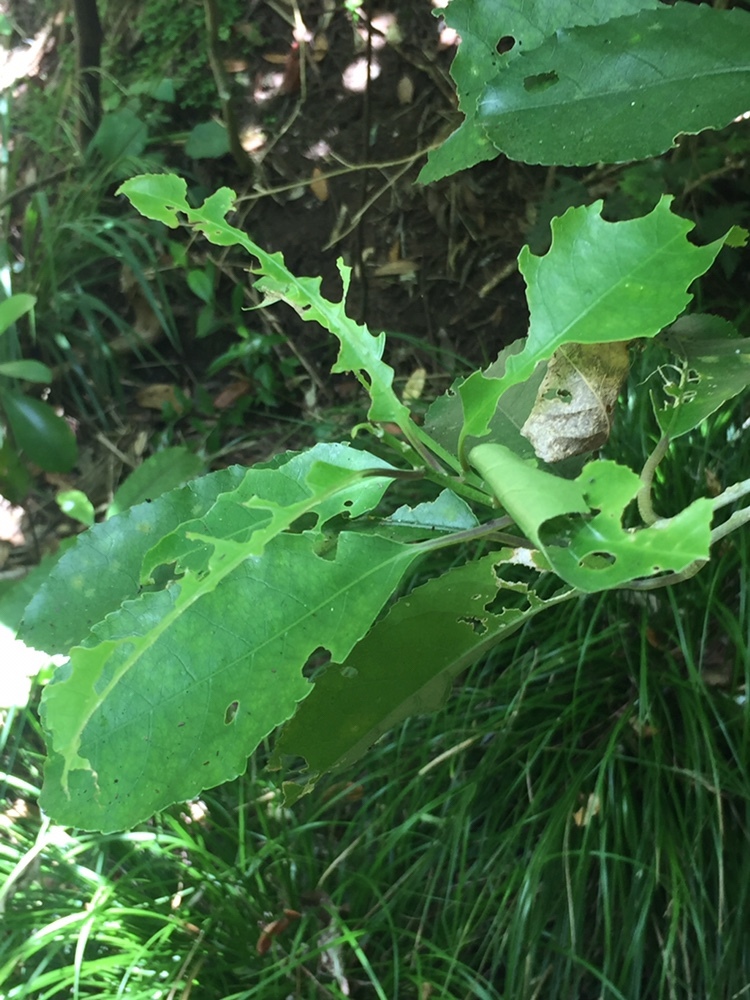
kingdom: Animalia
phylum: Arthropoda
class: Insecta
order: Lepidoptera
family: Noctuidae
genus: Austramathes
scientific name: Austramathes purpurea
